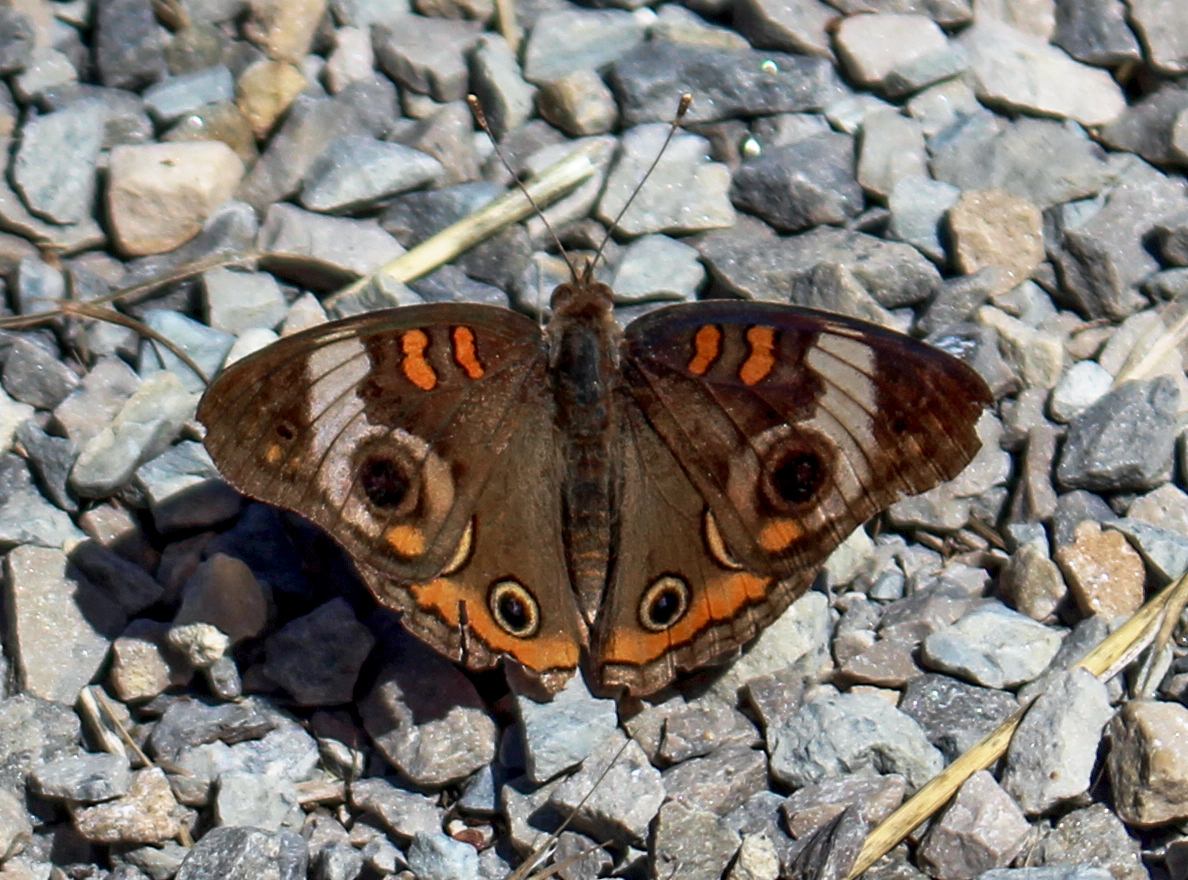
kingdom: Animalia
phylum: Arthropoda
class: Insecta
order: Lepidoptera
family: Nymphalidae
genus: Junonia
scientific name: Junonia coenia
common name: Common buckeye
